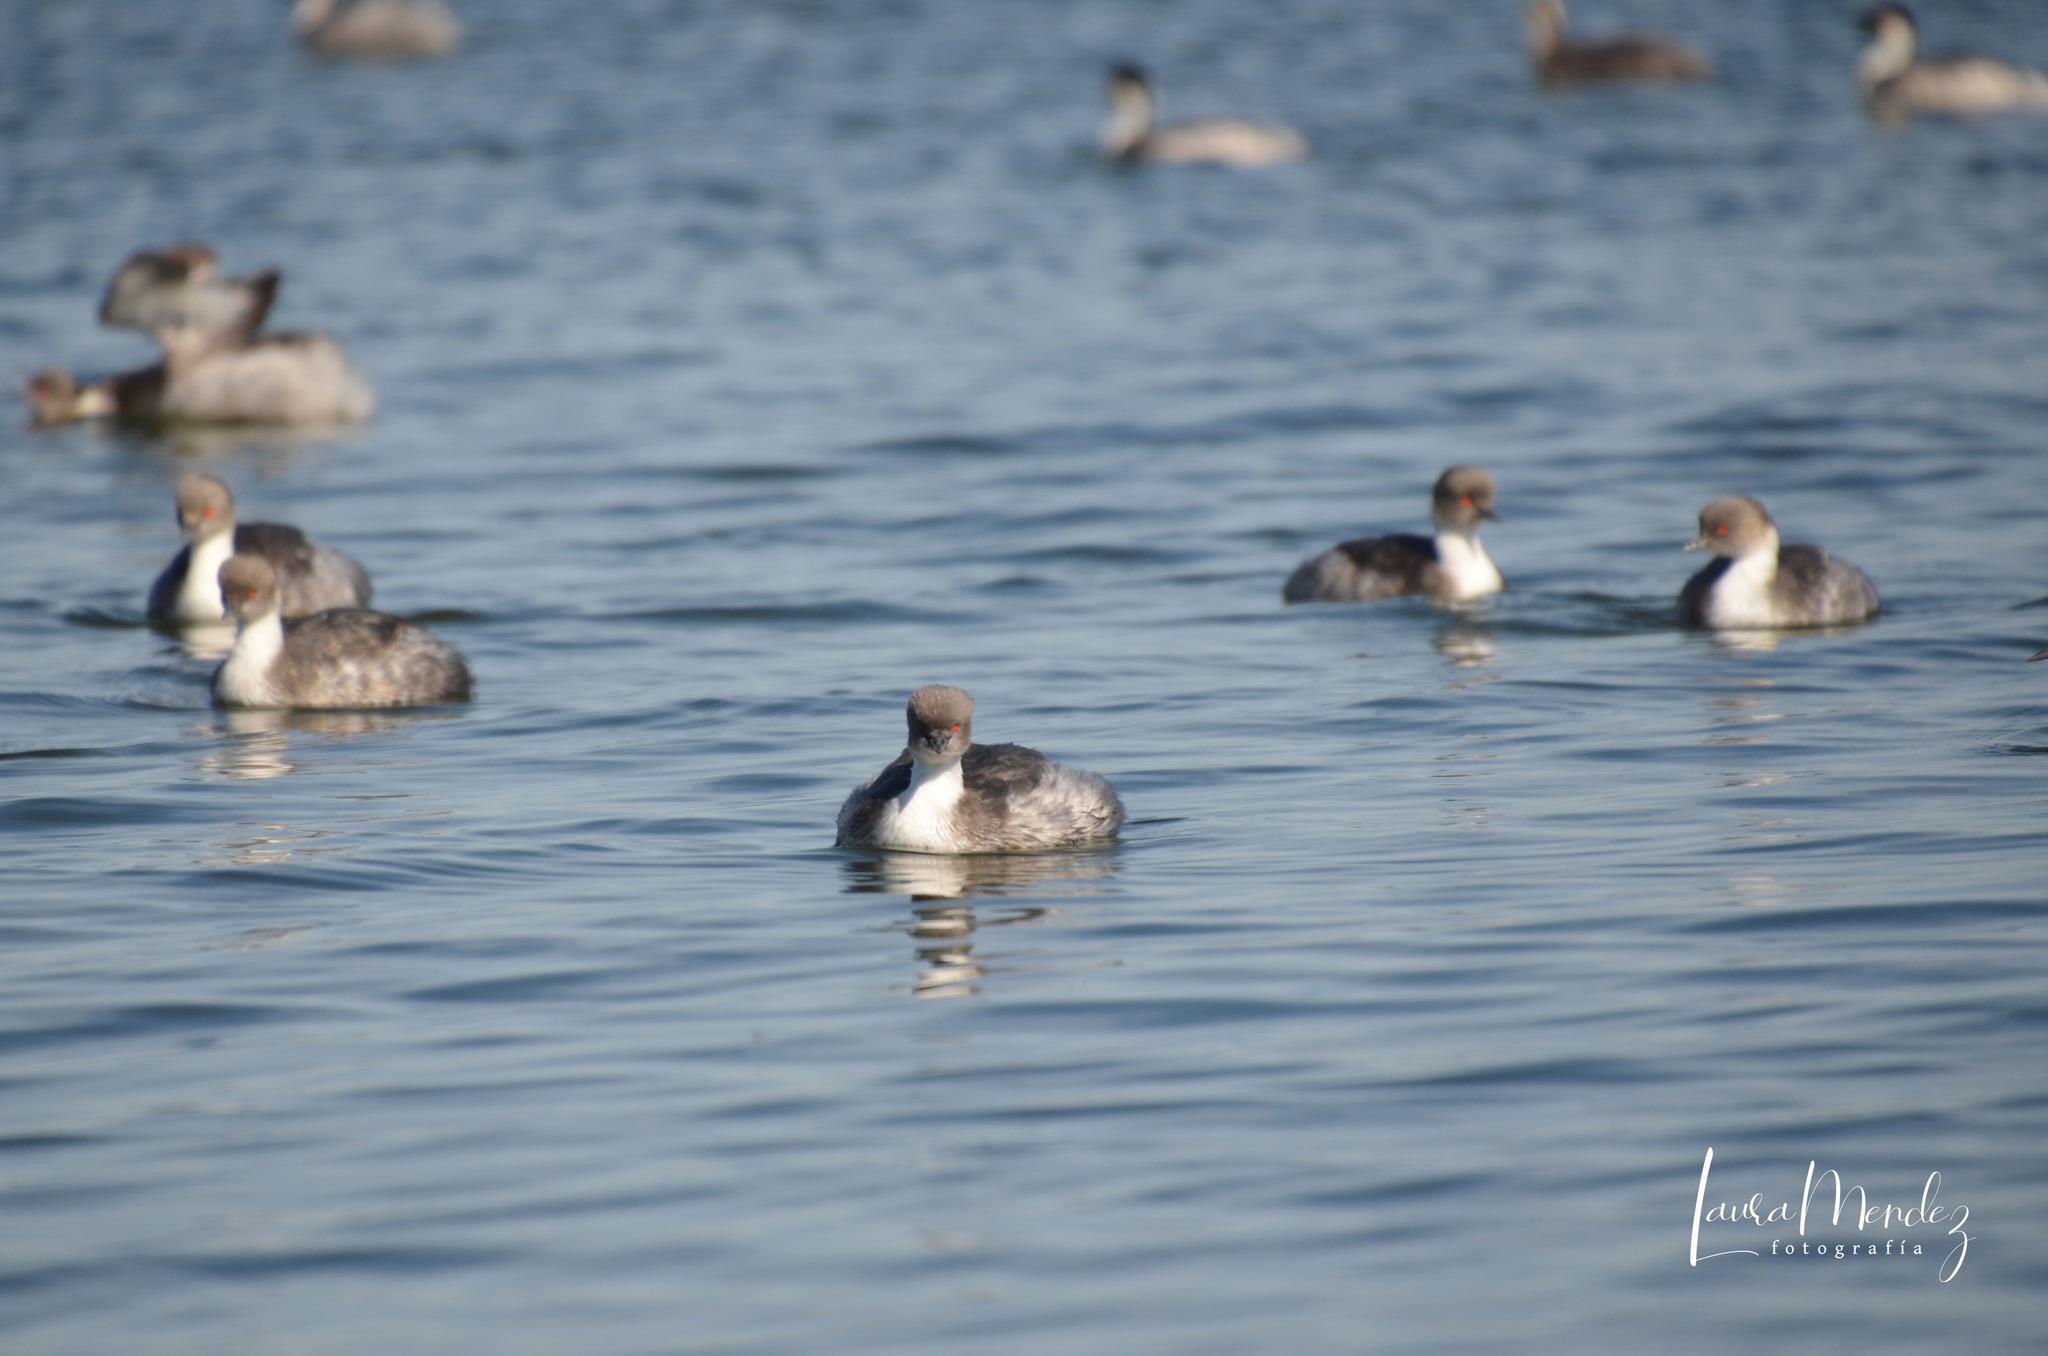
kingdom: Animalia
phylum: Chordata
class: Aves
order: Podicipediformes
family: Podicipedidae
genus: Podiceps
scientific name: Podiceps occipitalis
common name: Silvery grebe
